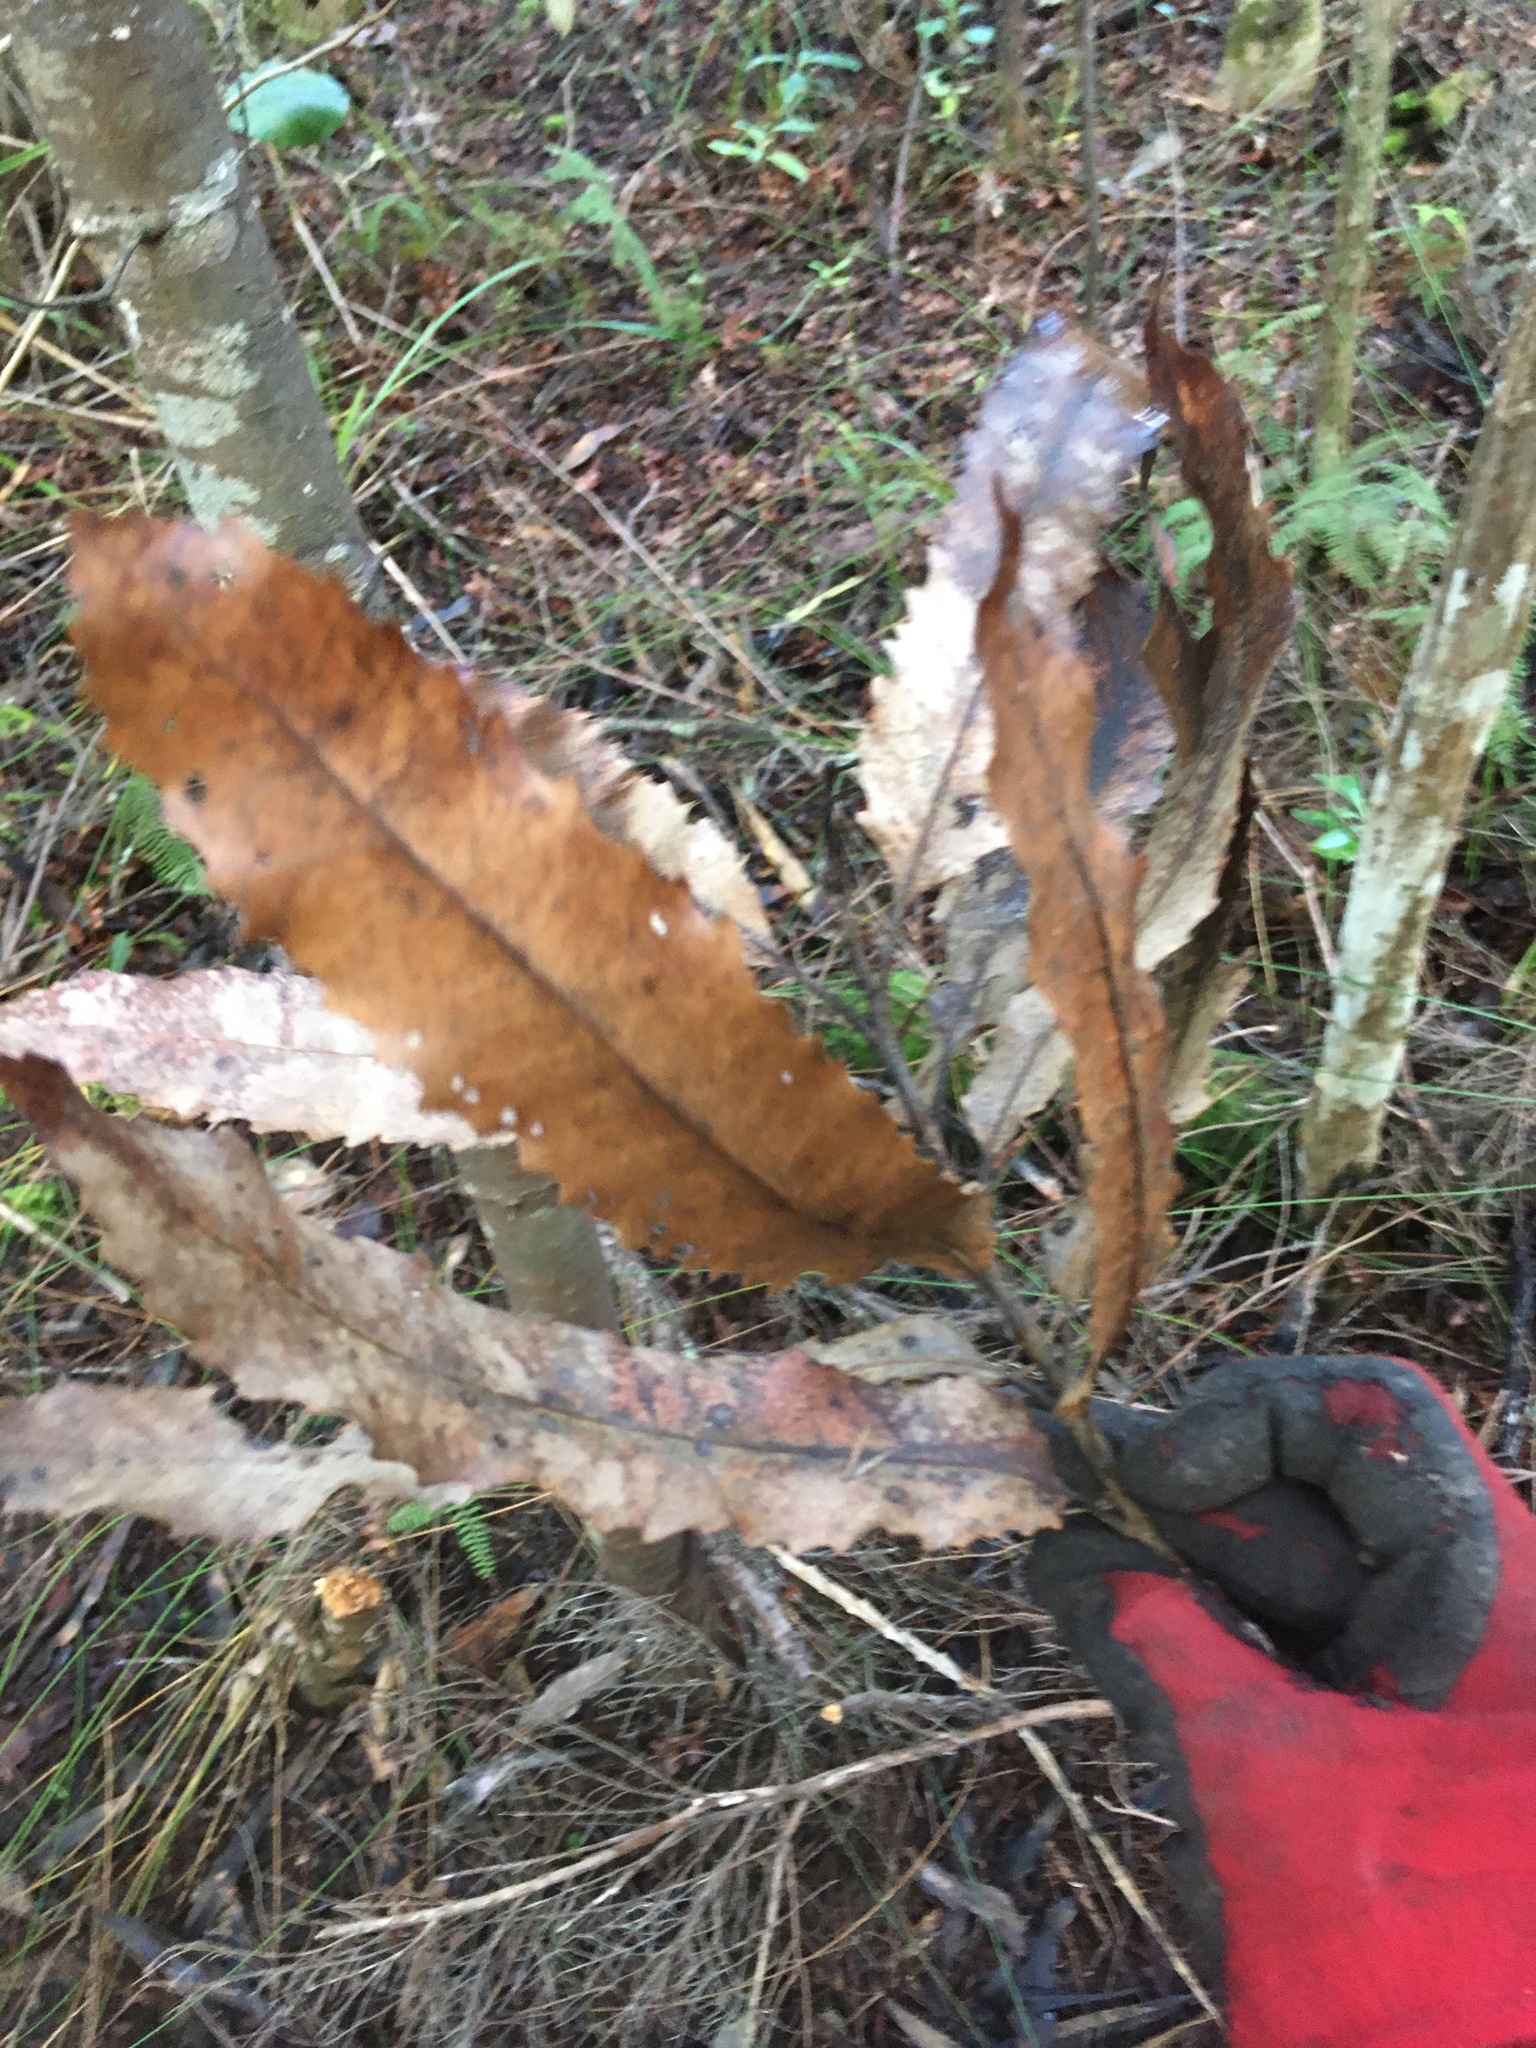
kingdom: Plantae
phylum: Tracheophyta
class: Magnoliopsida
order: Proteales
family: Proteaceae
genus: Knightia
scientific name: Knightia excelsa
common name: New zealand-honeysuckle
